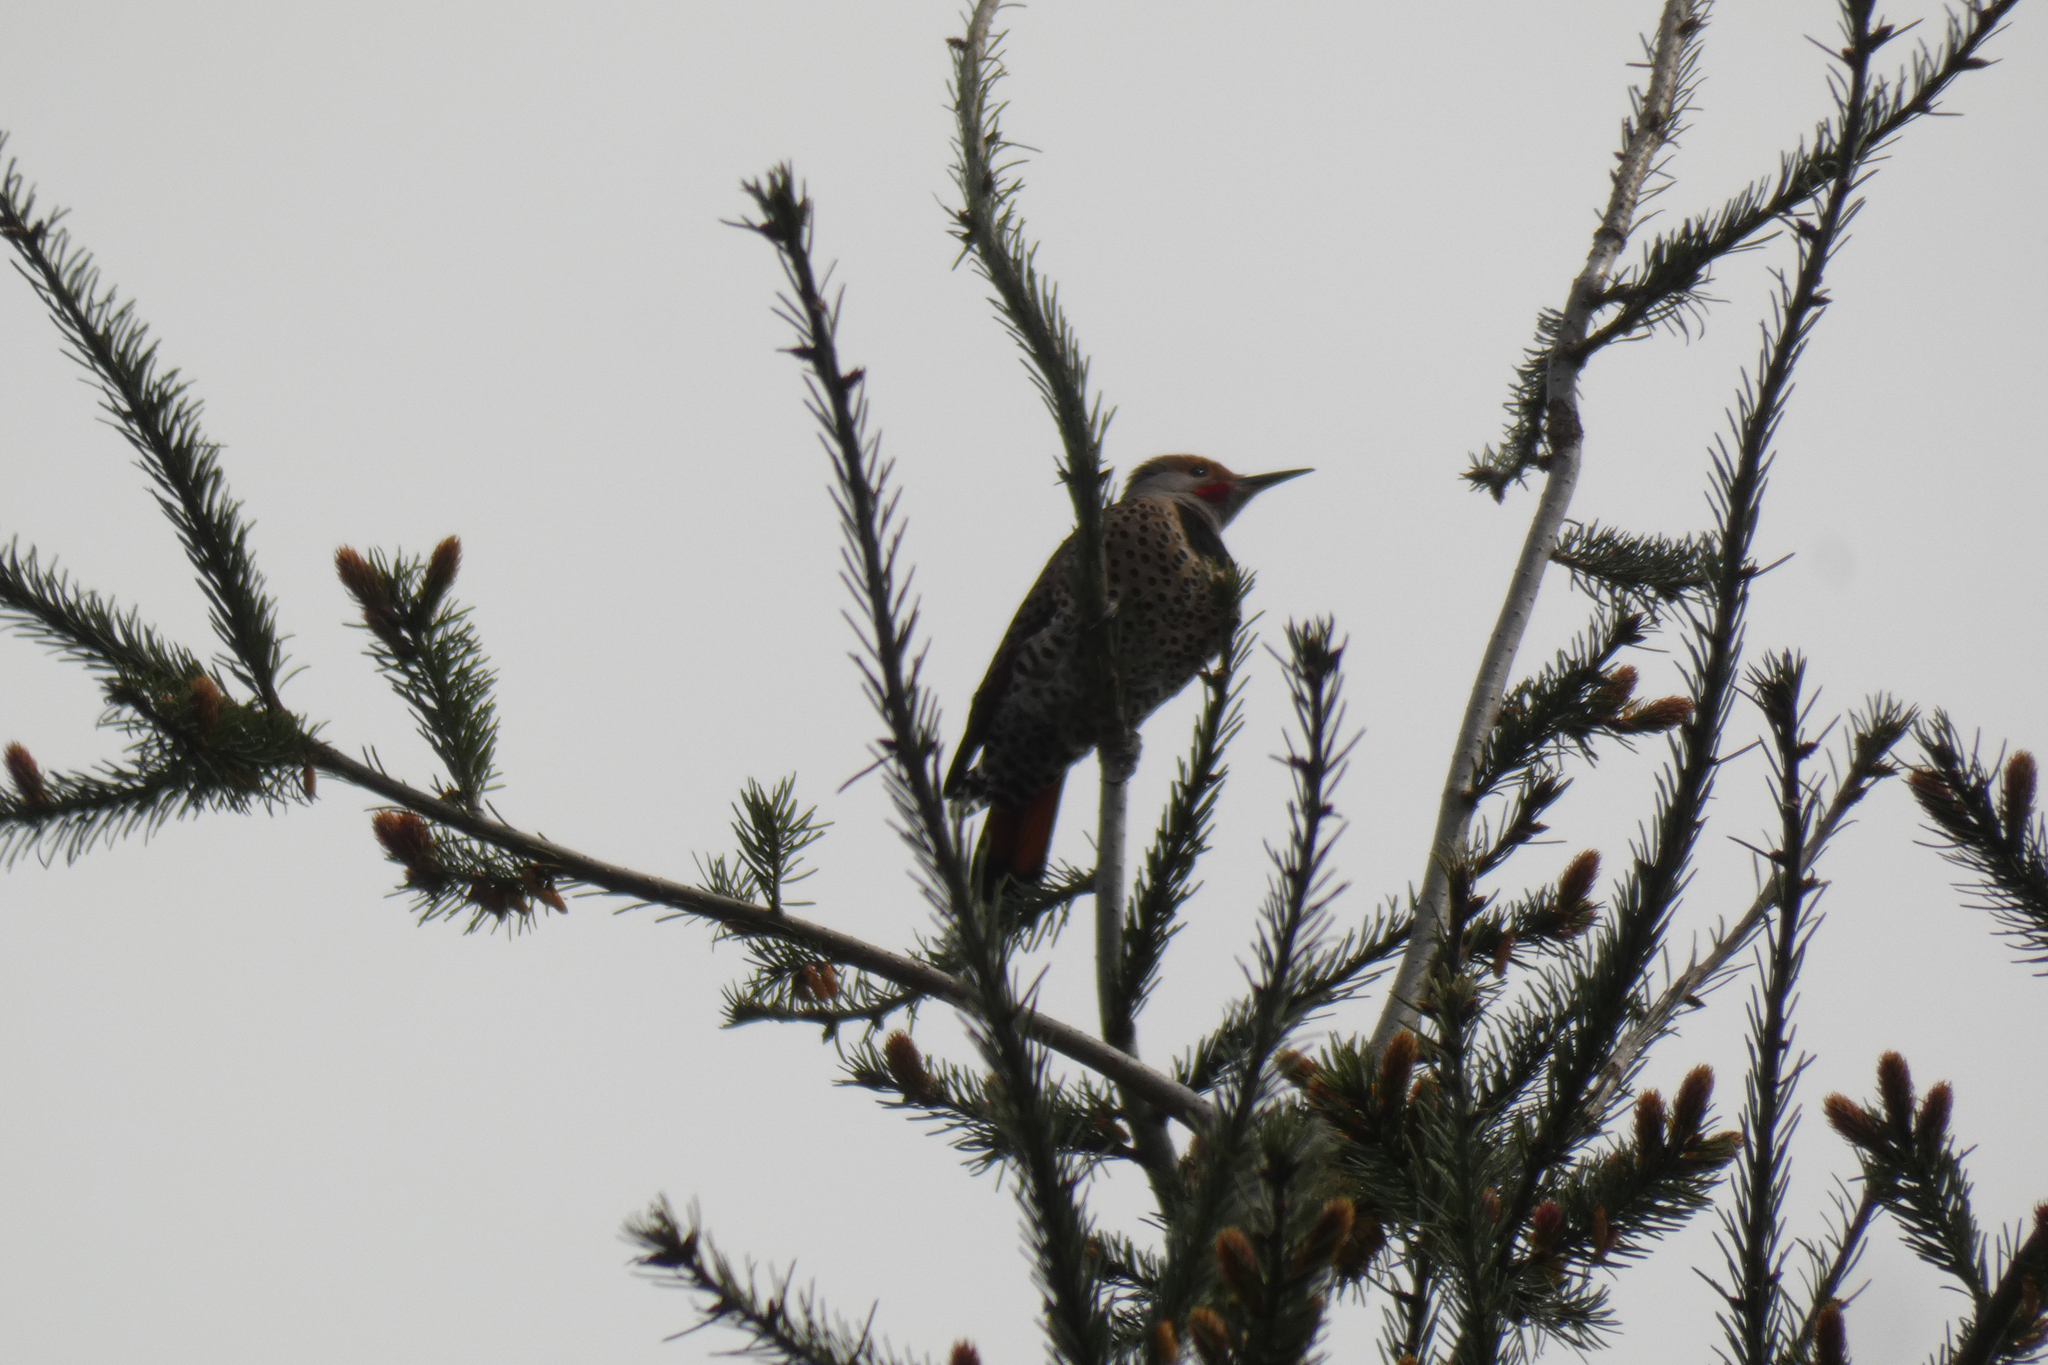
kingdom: Animalia
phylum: Chordata
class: Aves
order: Piciformes
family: Picidae
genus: Colaptes
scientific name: Colaptes auratus
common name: Northern flicker
